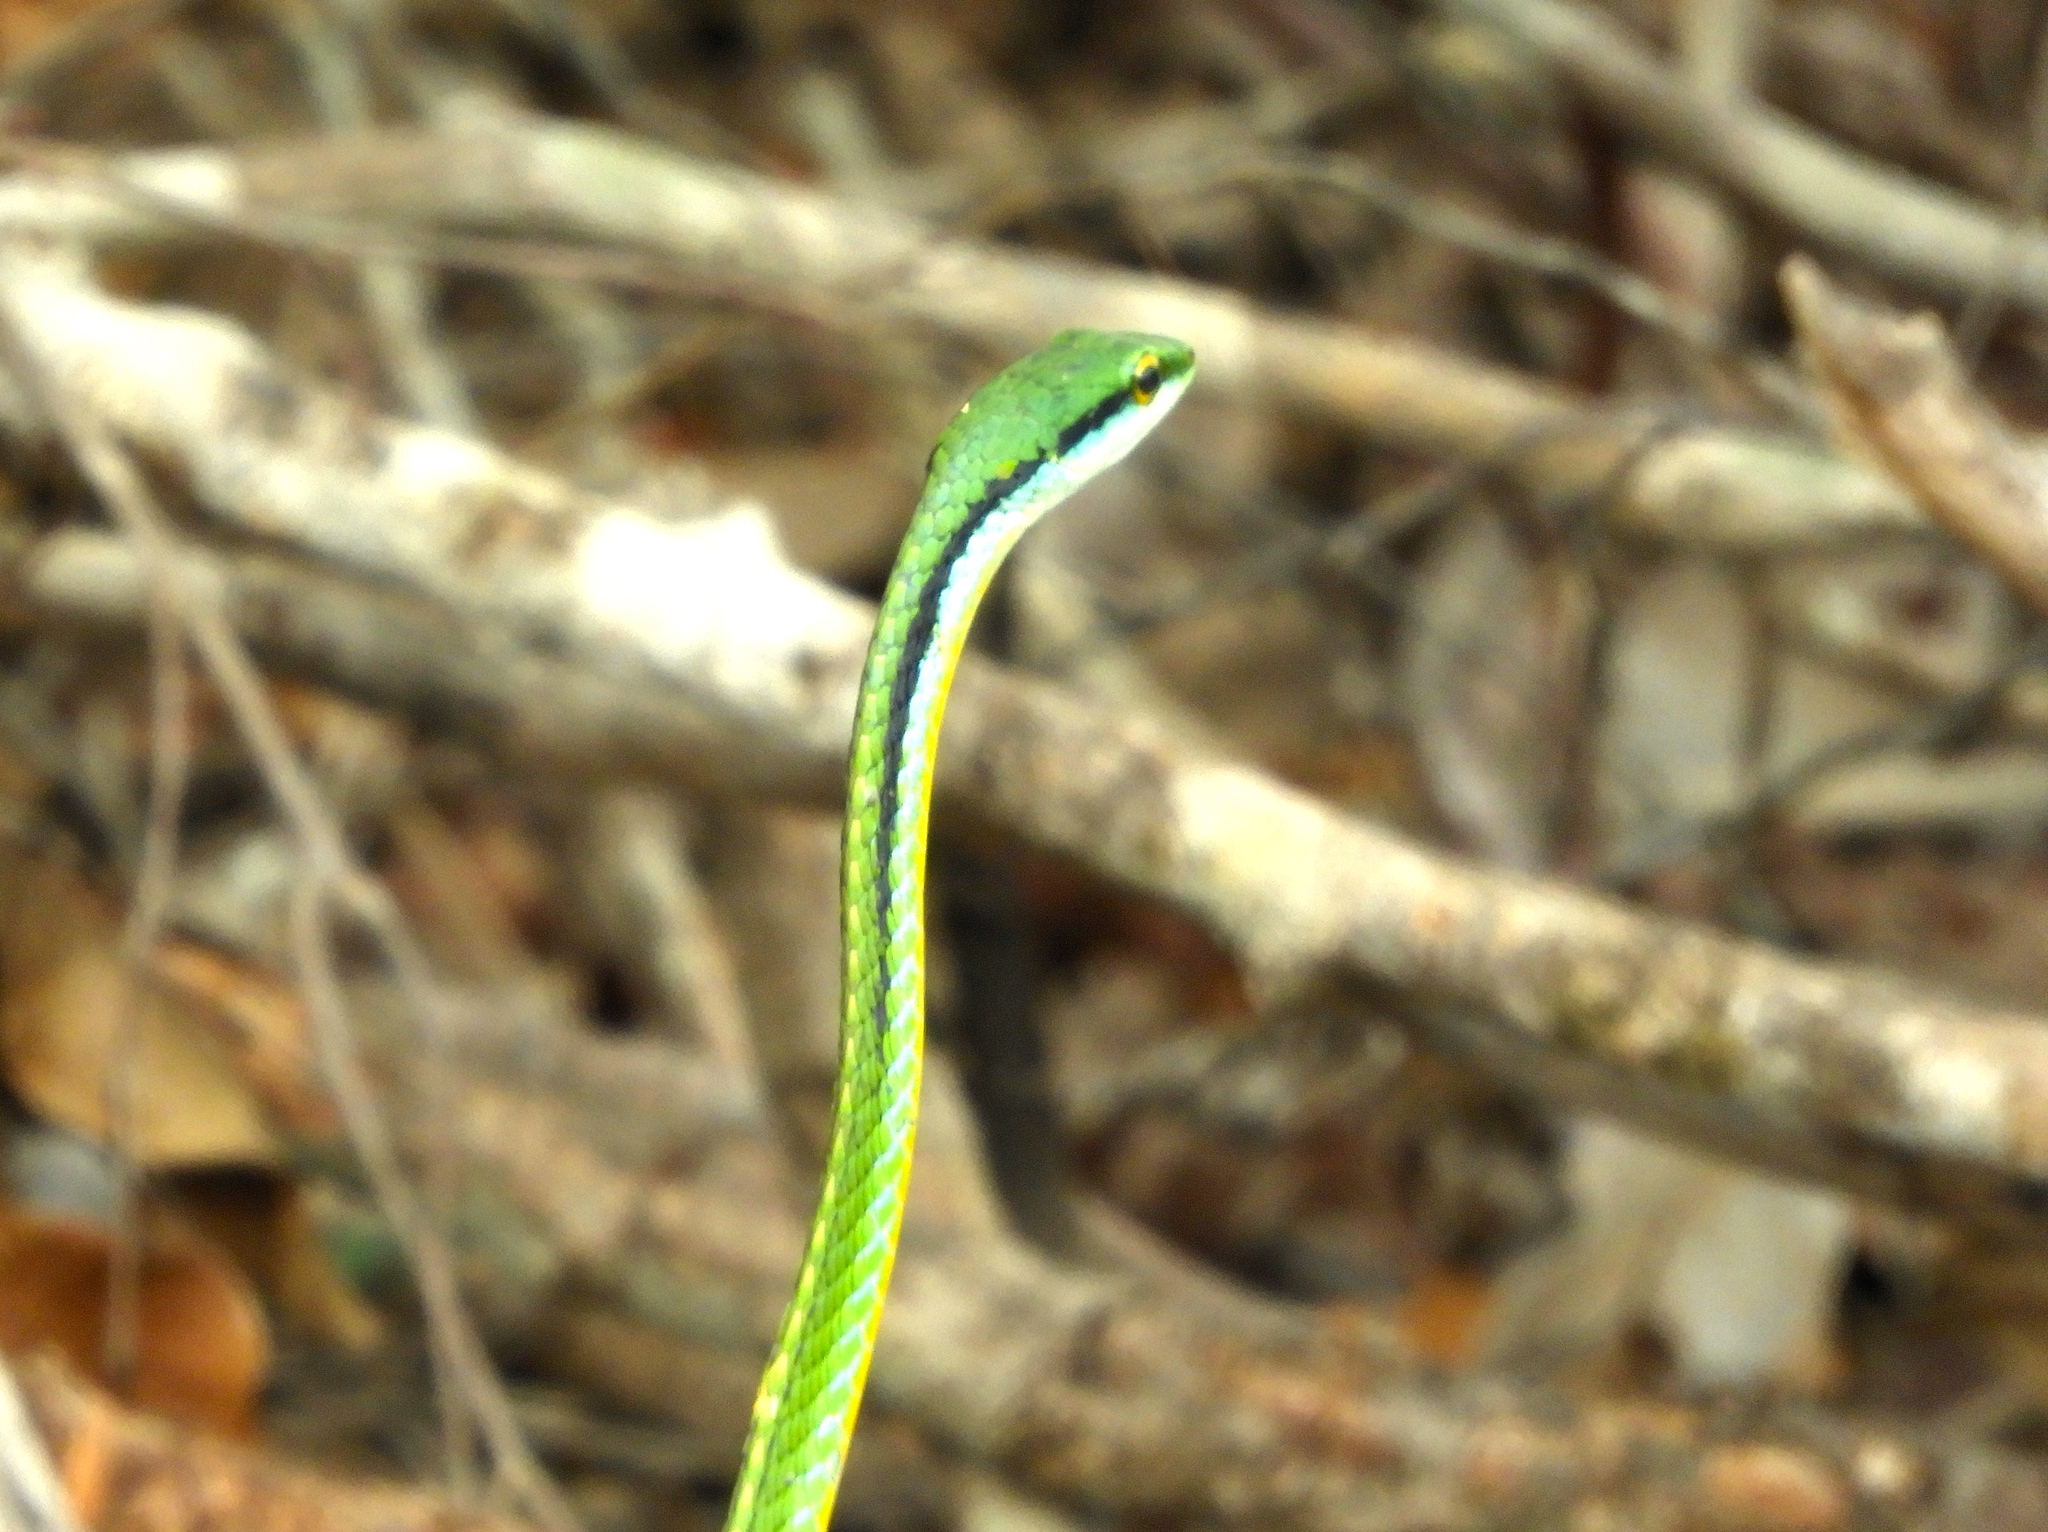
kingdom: Animalia
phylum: Chordata
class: Squamata
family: Colubridae
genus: Leptophis
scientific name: Leptophis diplotropis
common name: Pacific coast parrot snake
